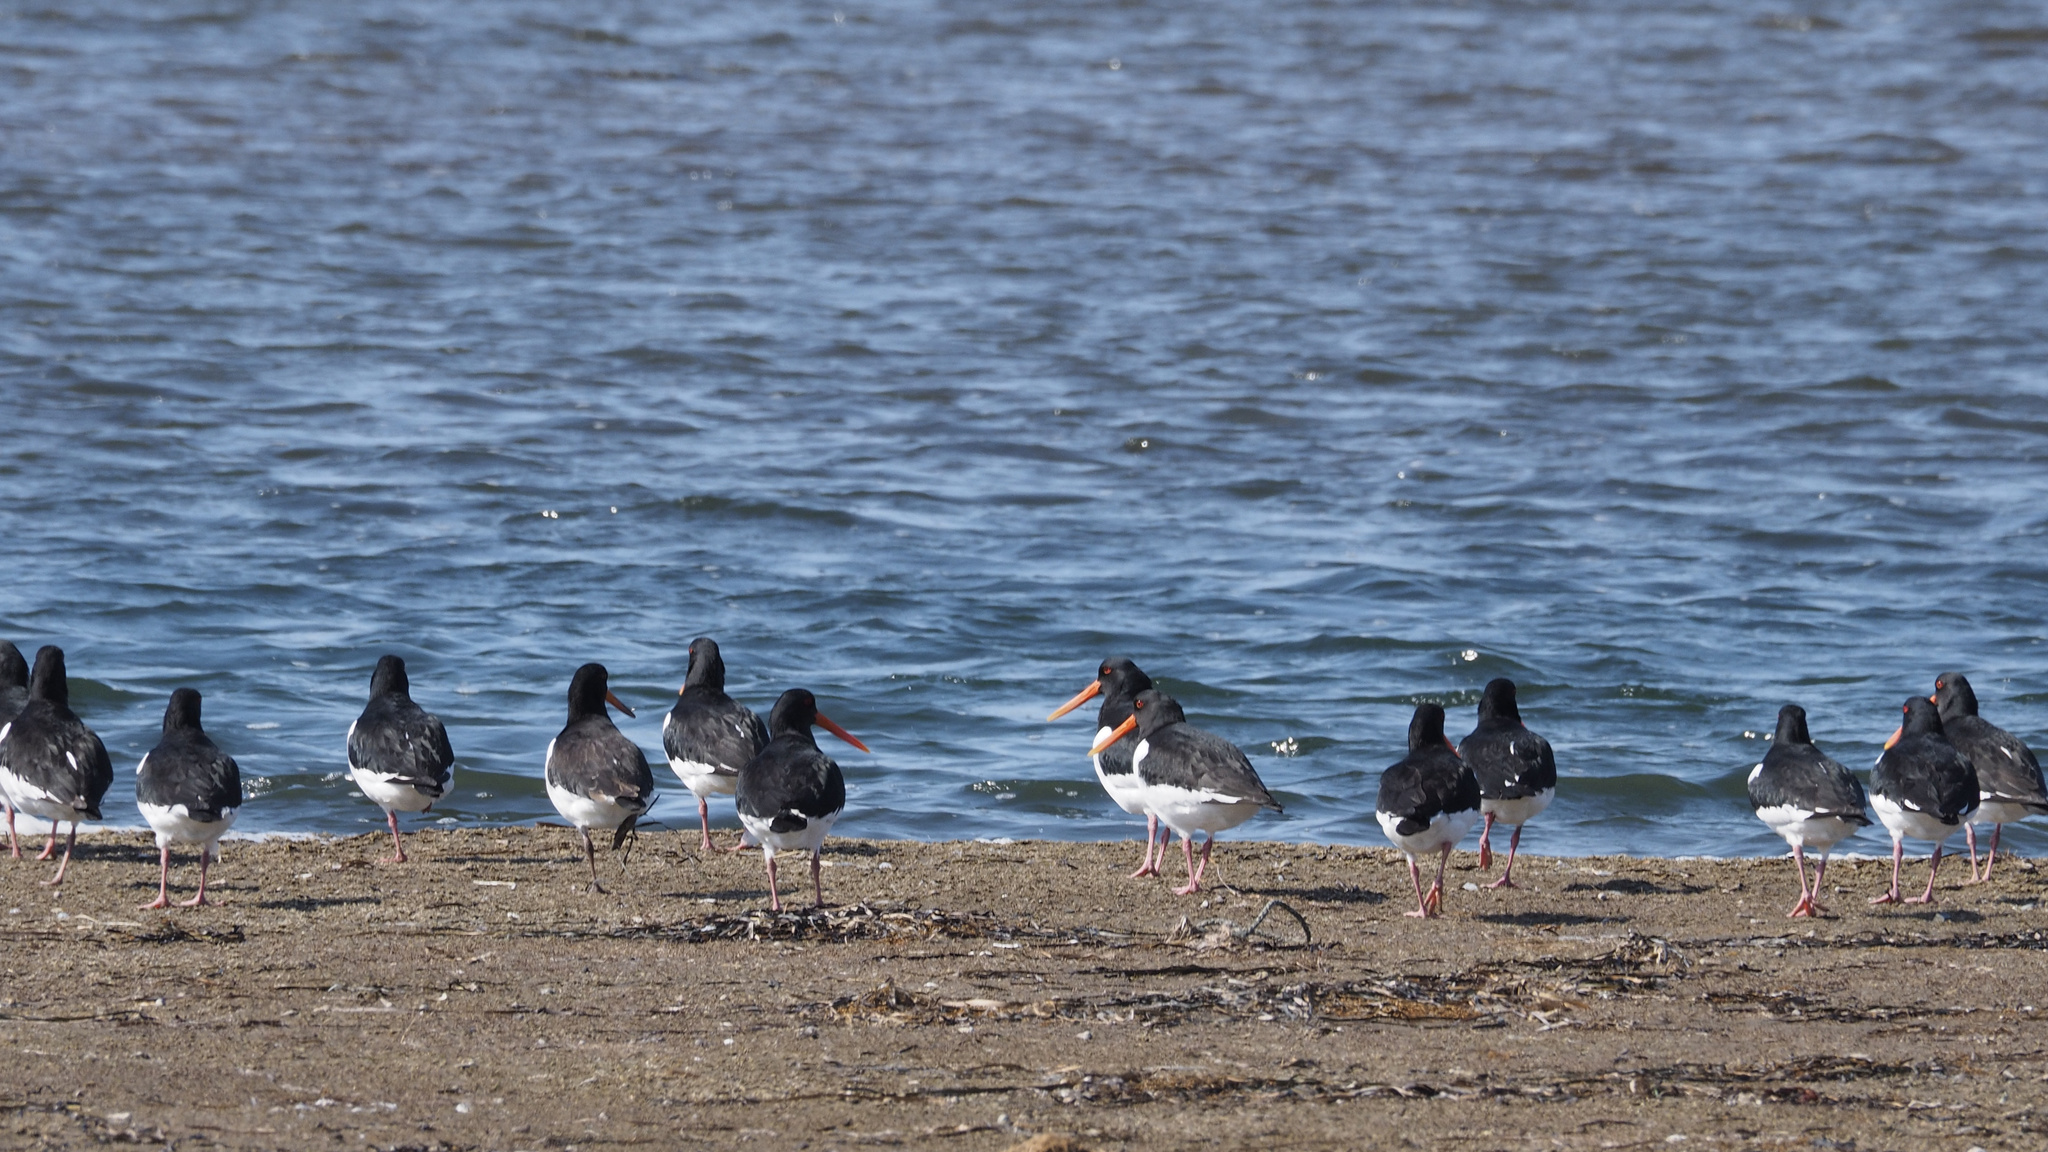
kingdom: Animalia
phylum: Chordata
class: Aves
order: Charadriiformes
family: Haematopodidae
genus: Haematopus
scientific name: Haematopus ostralegus
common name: Eurasian oystercatcher
